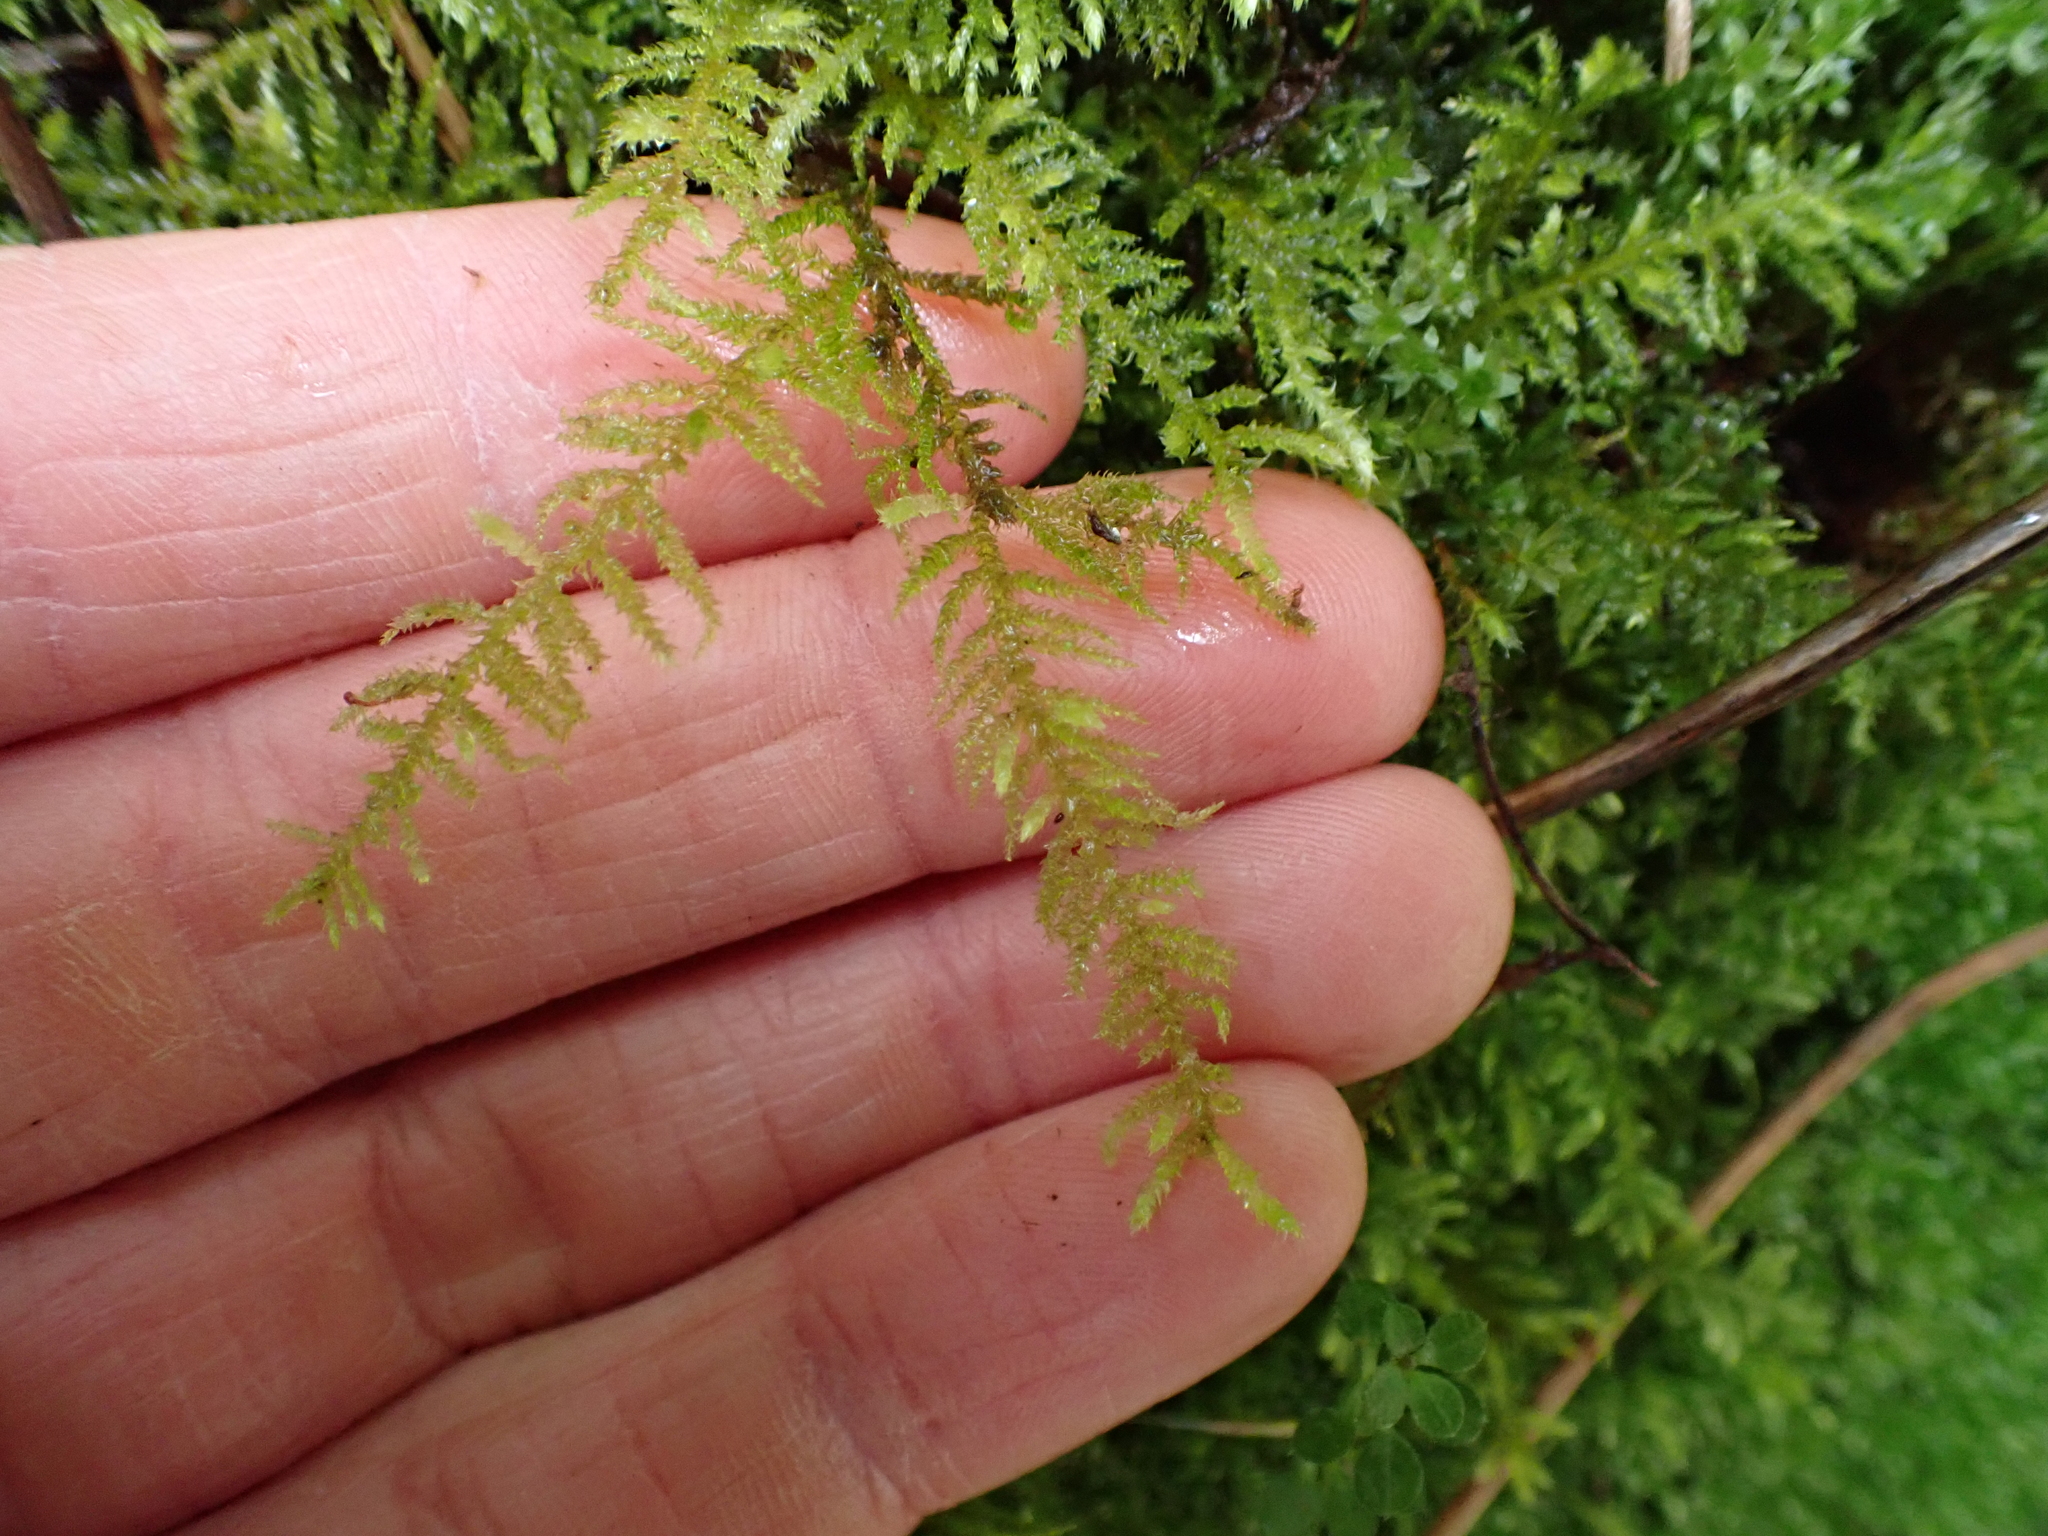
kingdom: Plantae
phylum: Bryophyta
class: Bryopsida
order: Hypnales
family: Brachytheciaceae
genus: Kindbergia
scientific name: Kindbergia oregana
